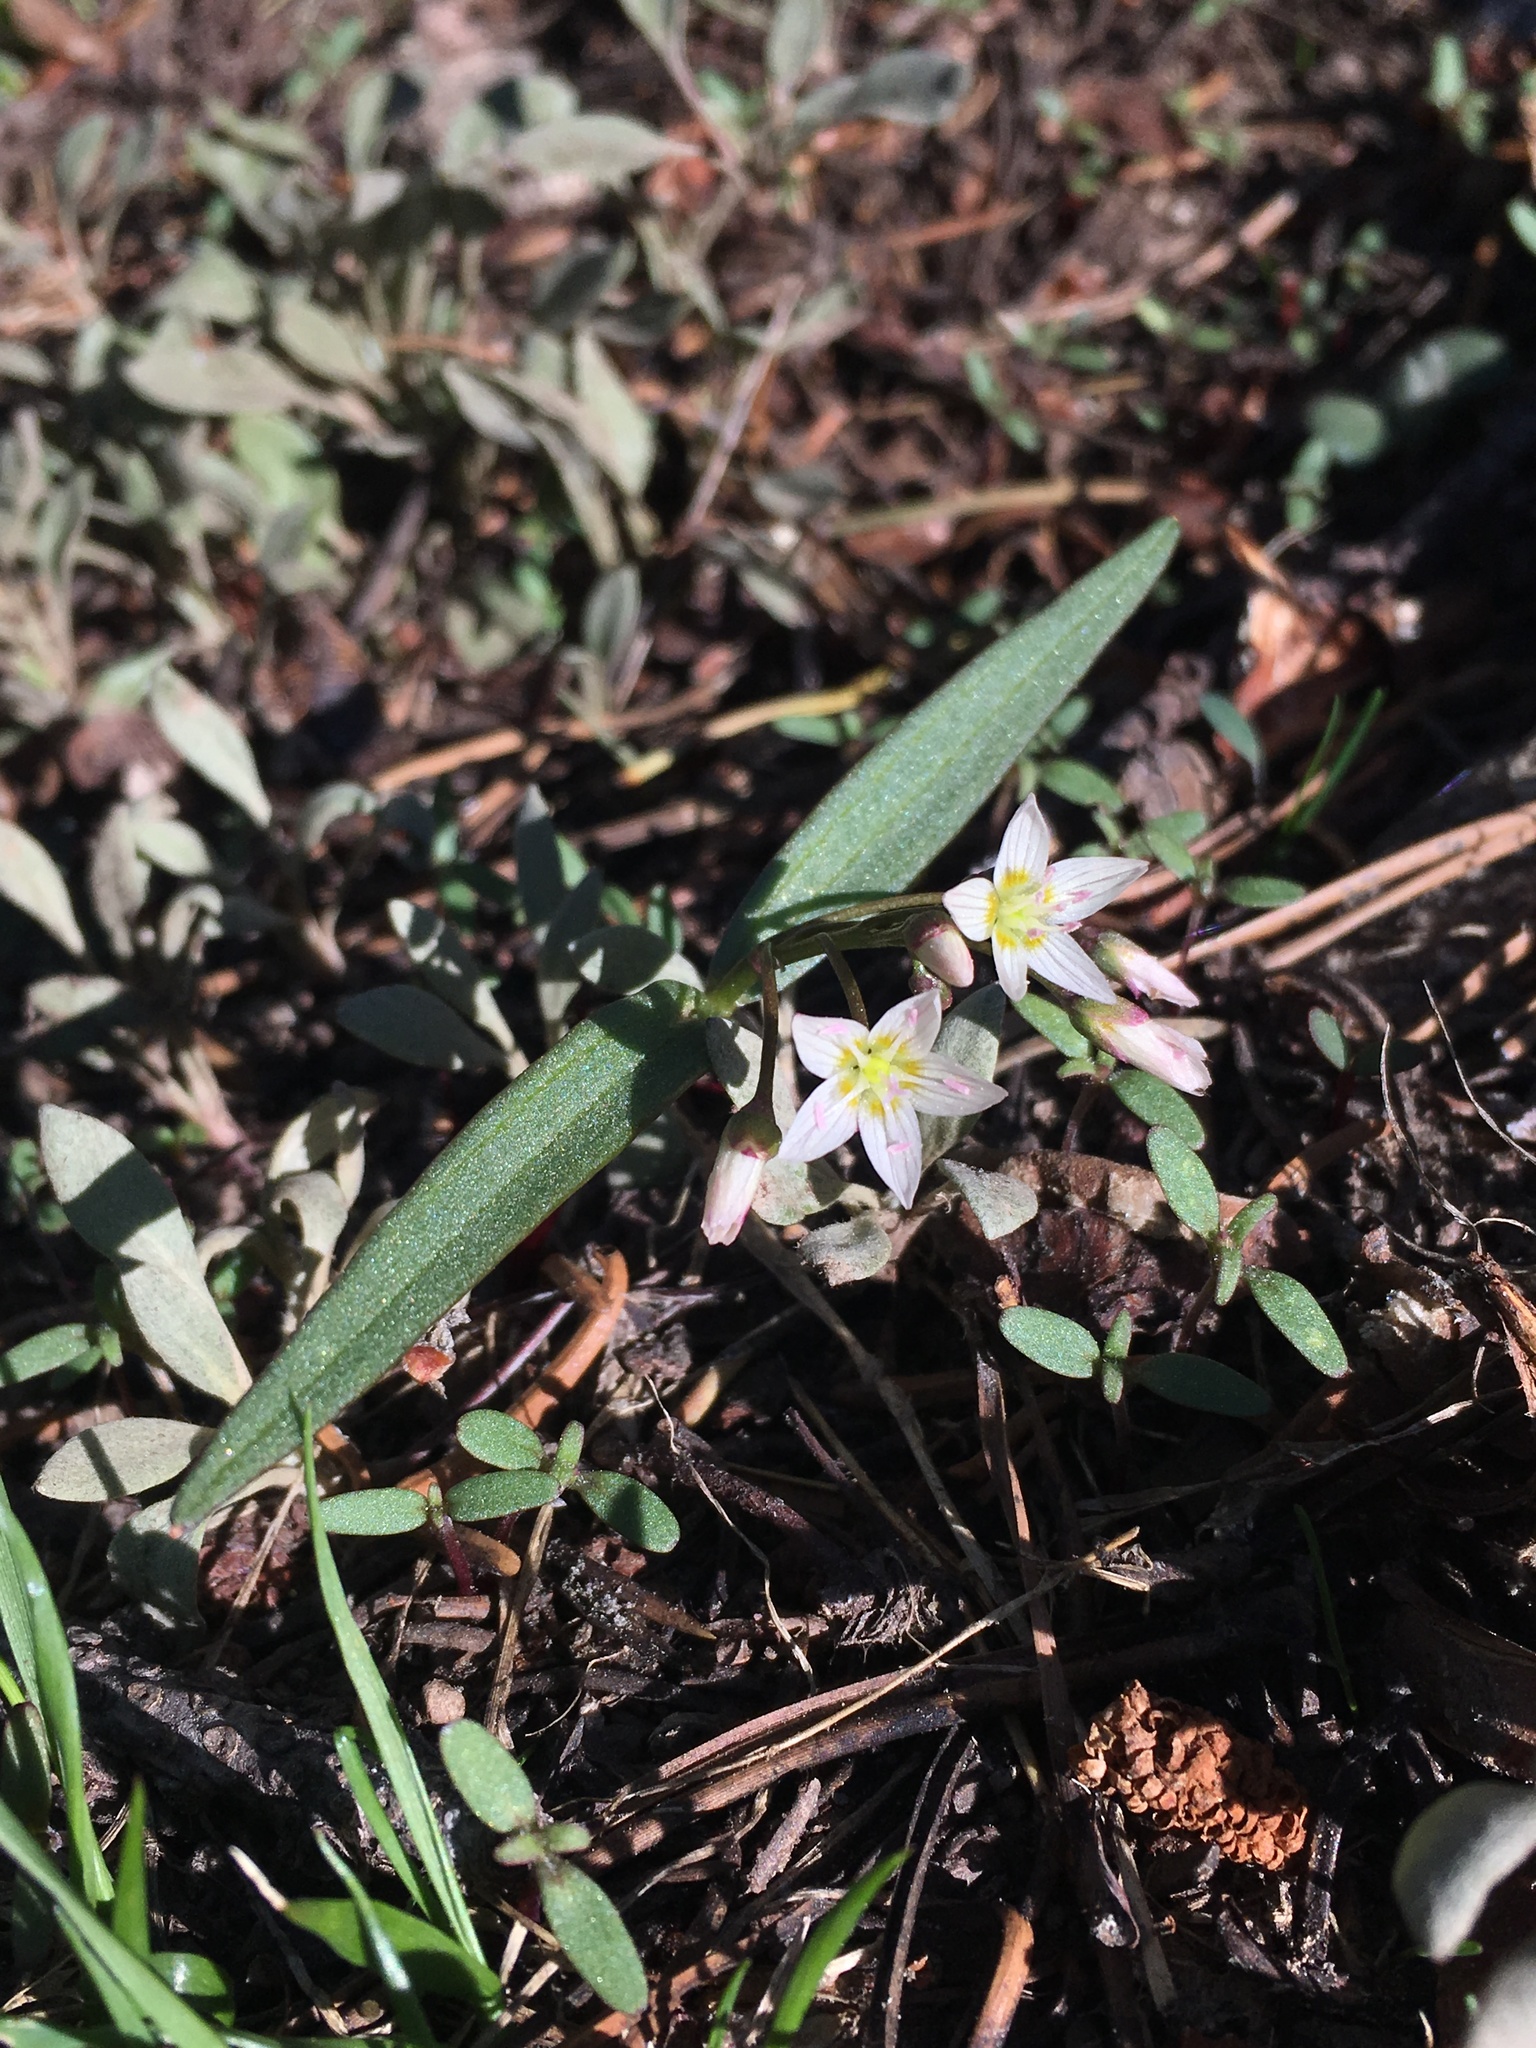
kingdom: Plantae
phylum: Tracheophyta
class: Magnoliopsida
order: Caryophyllales
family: Montiaceae
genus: Claytonia
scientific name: Claytonia lanceolata
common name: Western spring-beauty
